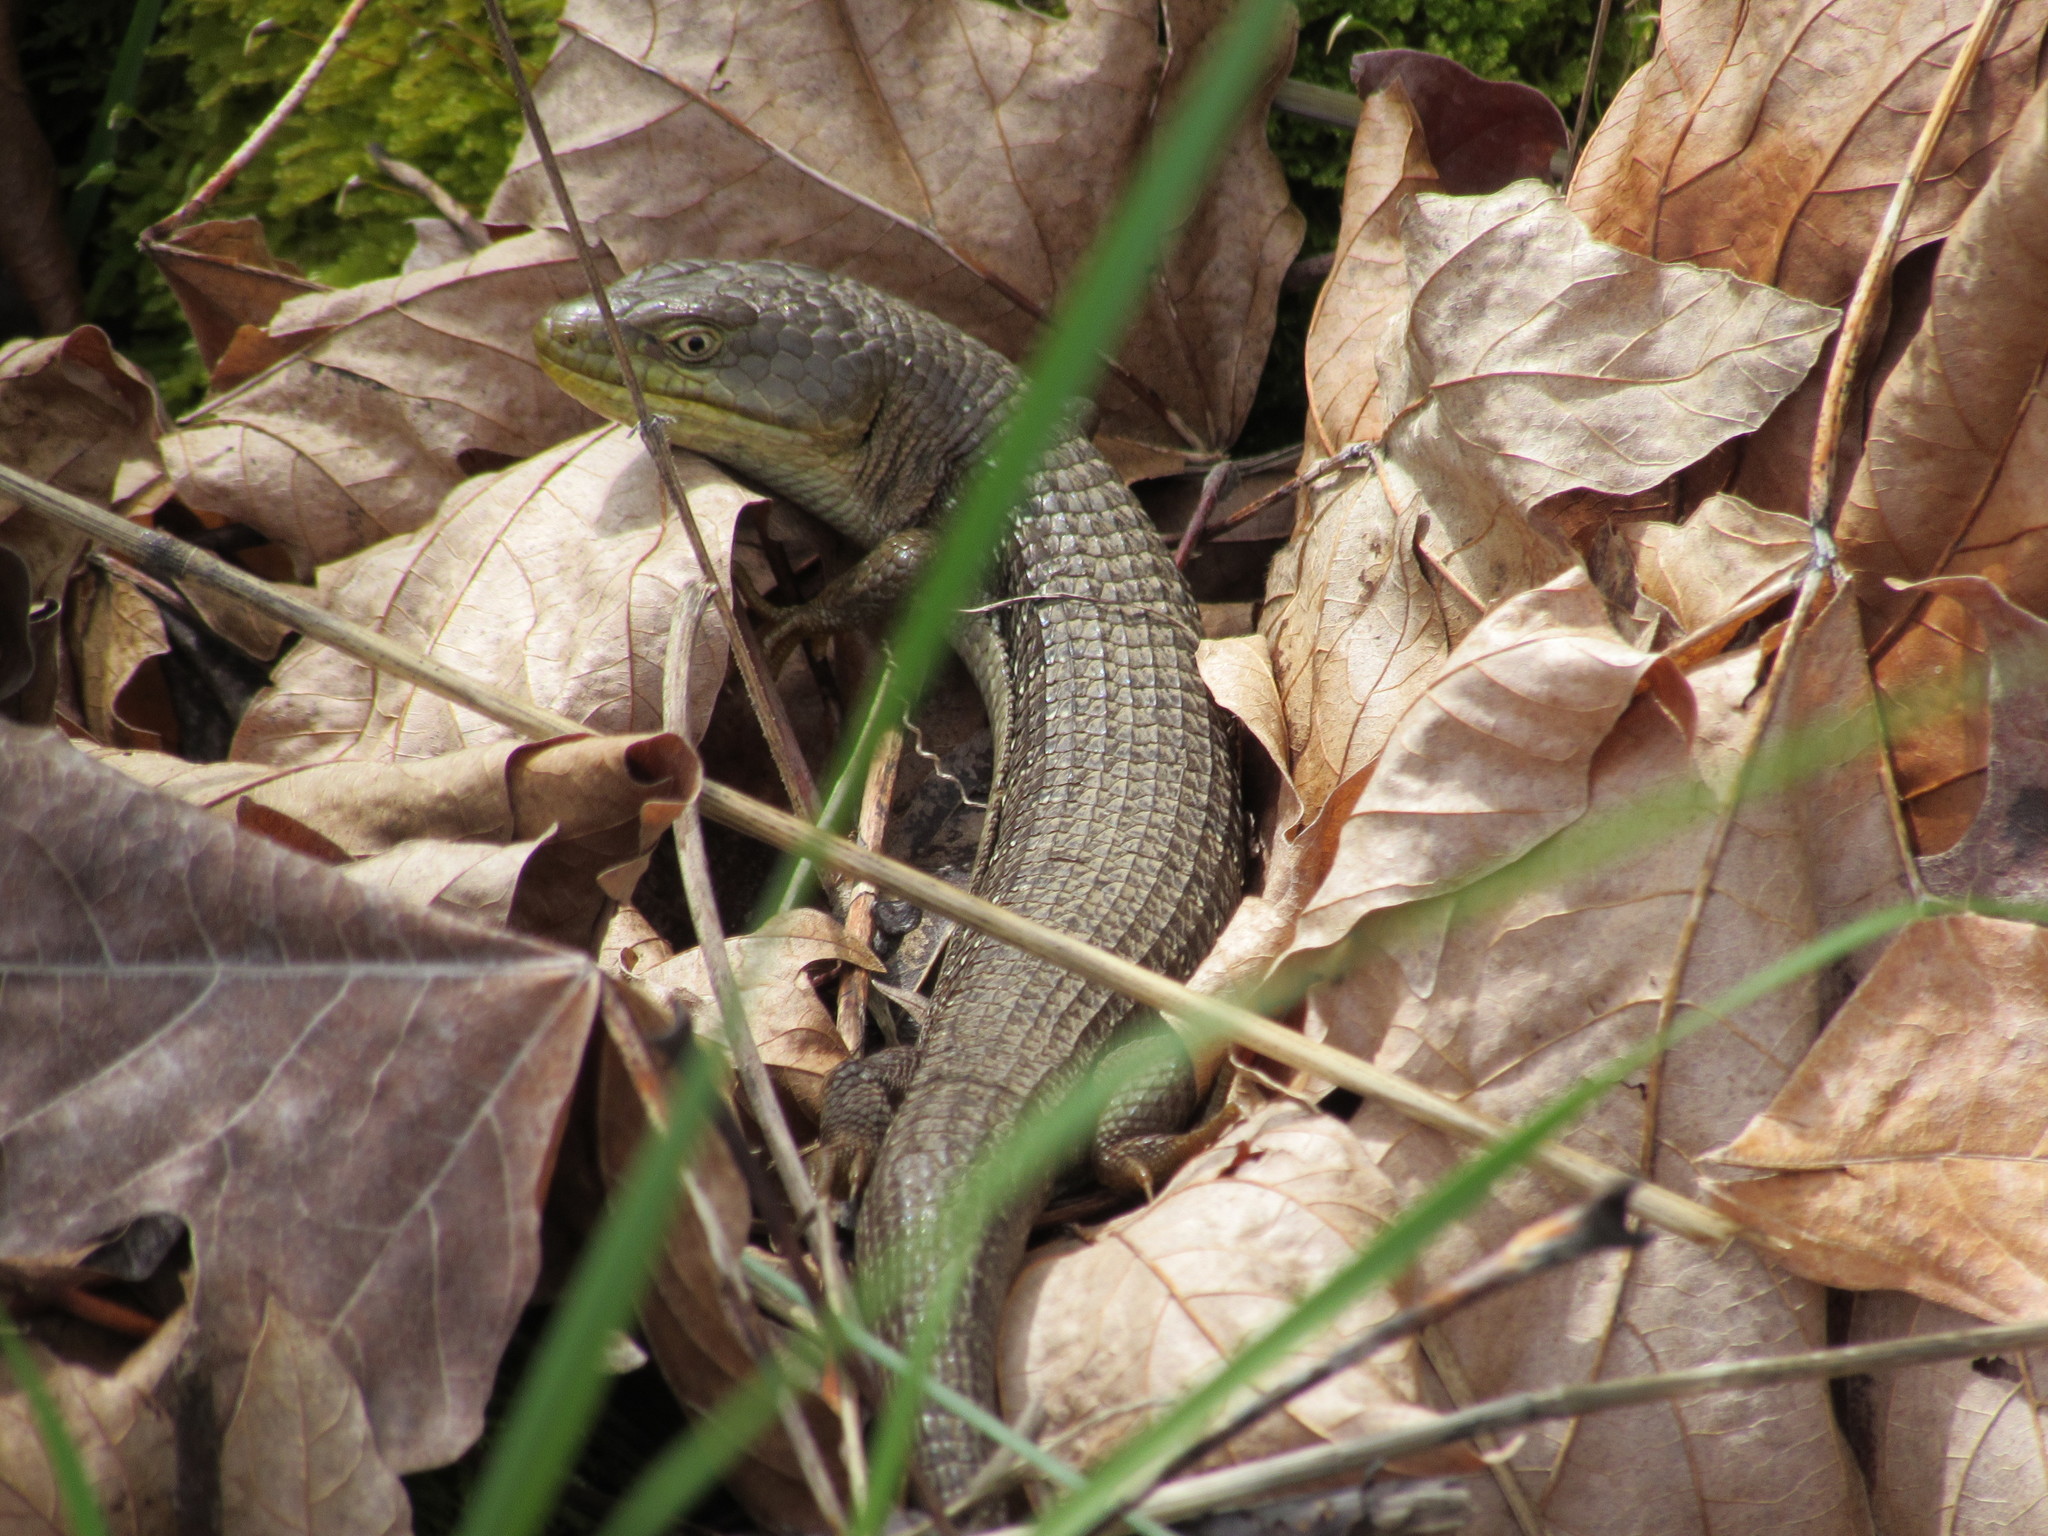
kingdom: Animalia
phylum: Chordata
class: Squamata
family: Anguidae
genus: Elgaria
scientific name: Elgaria multicarinata
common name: Southern alligator lizard
